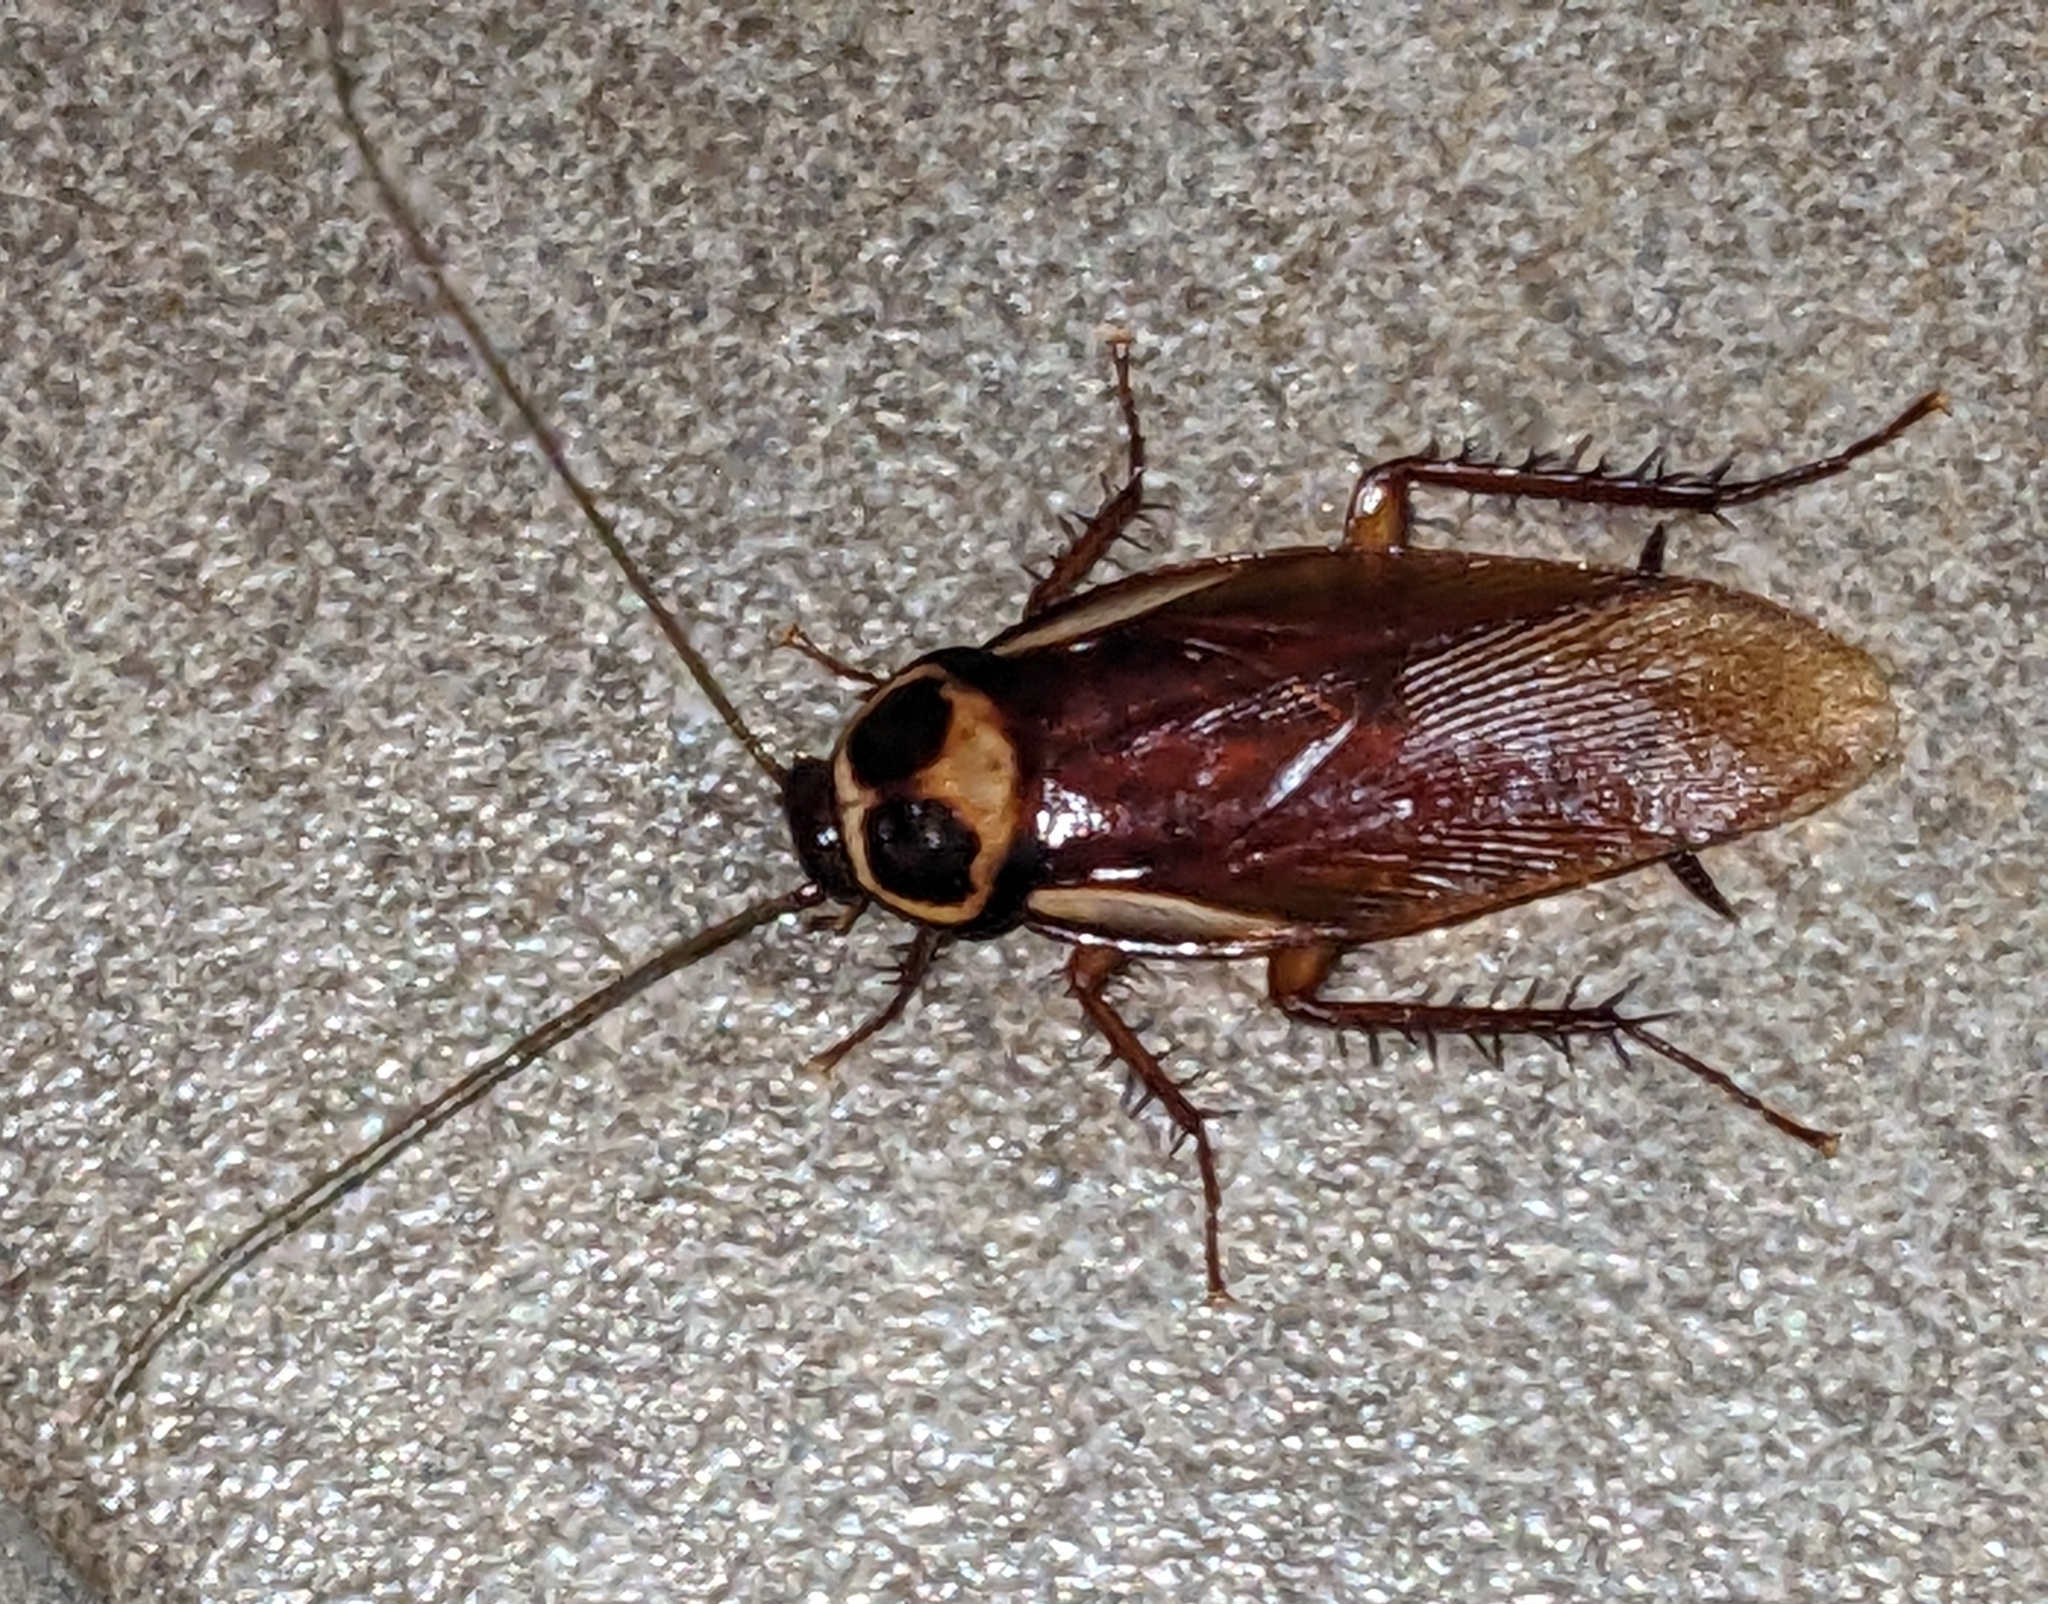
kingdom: Animalia
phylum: Arthropoda
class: Insecta
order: Blattodea
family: Blattidae
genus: Periplaneta
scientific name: Periplaneta australasiae
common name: Australian cockroach
